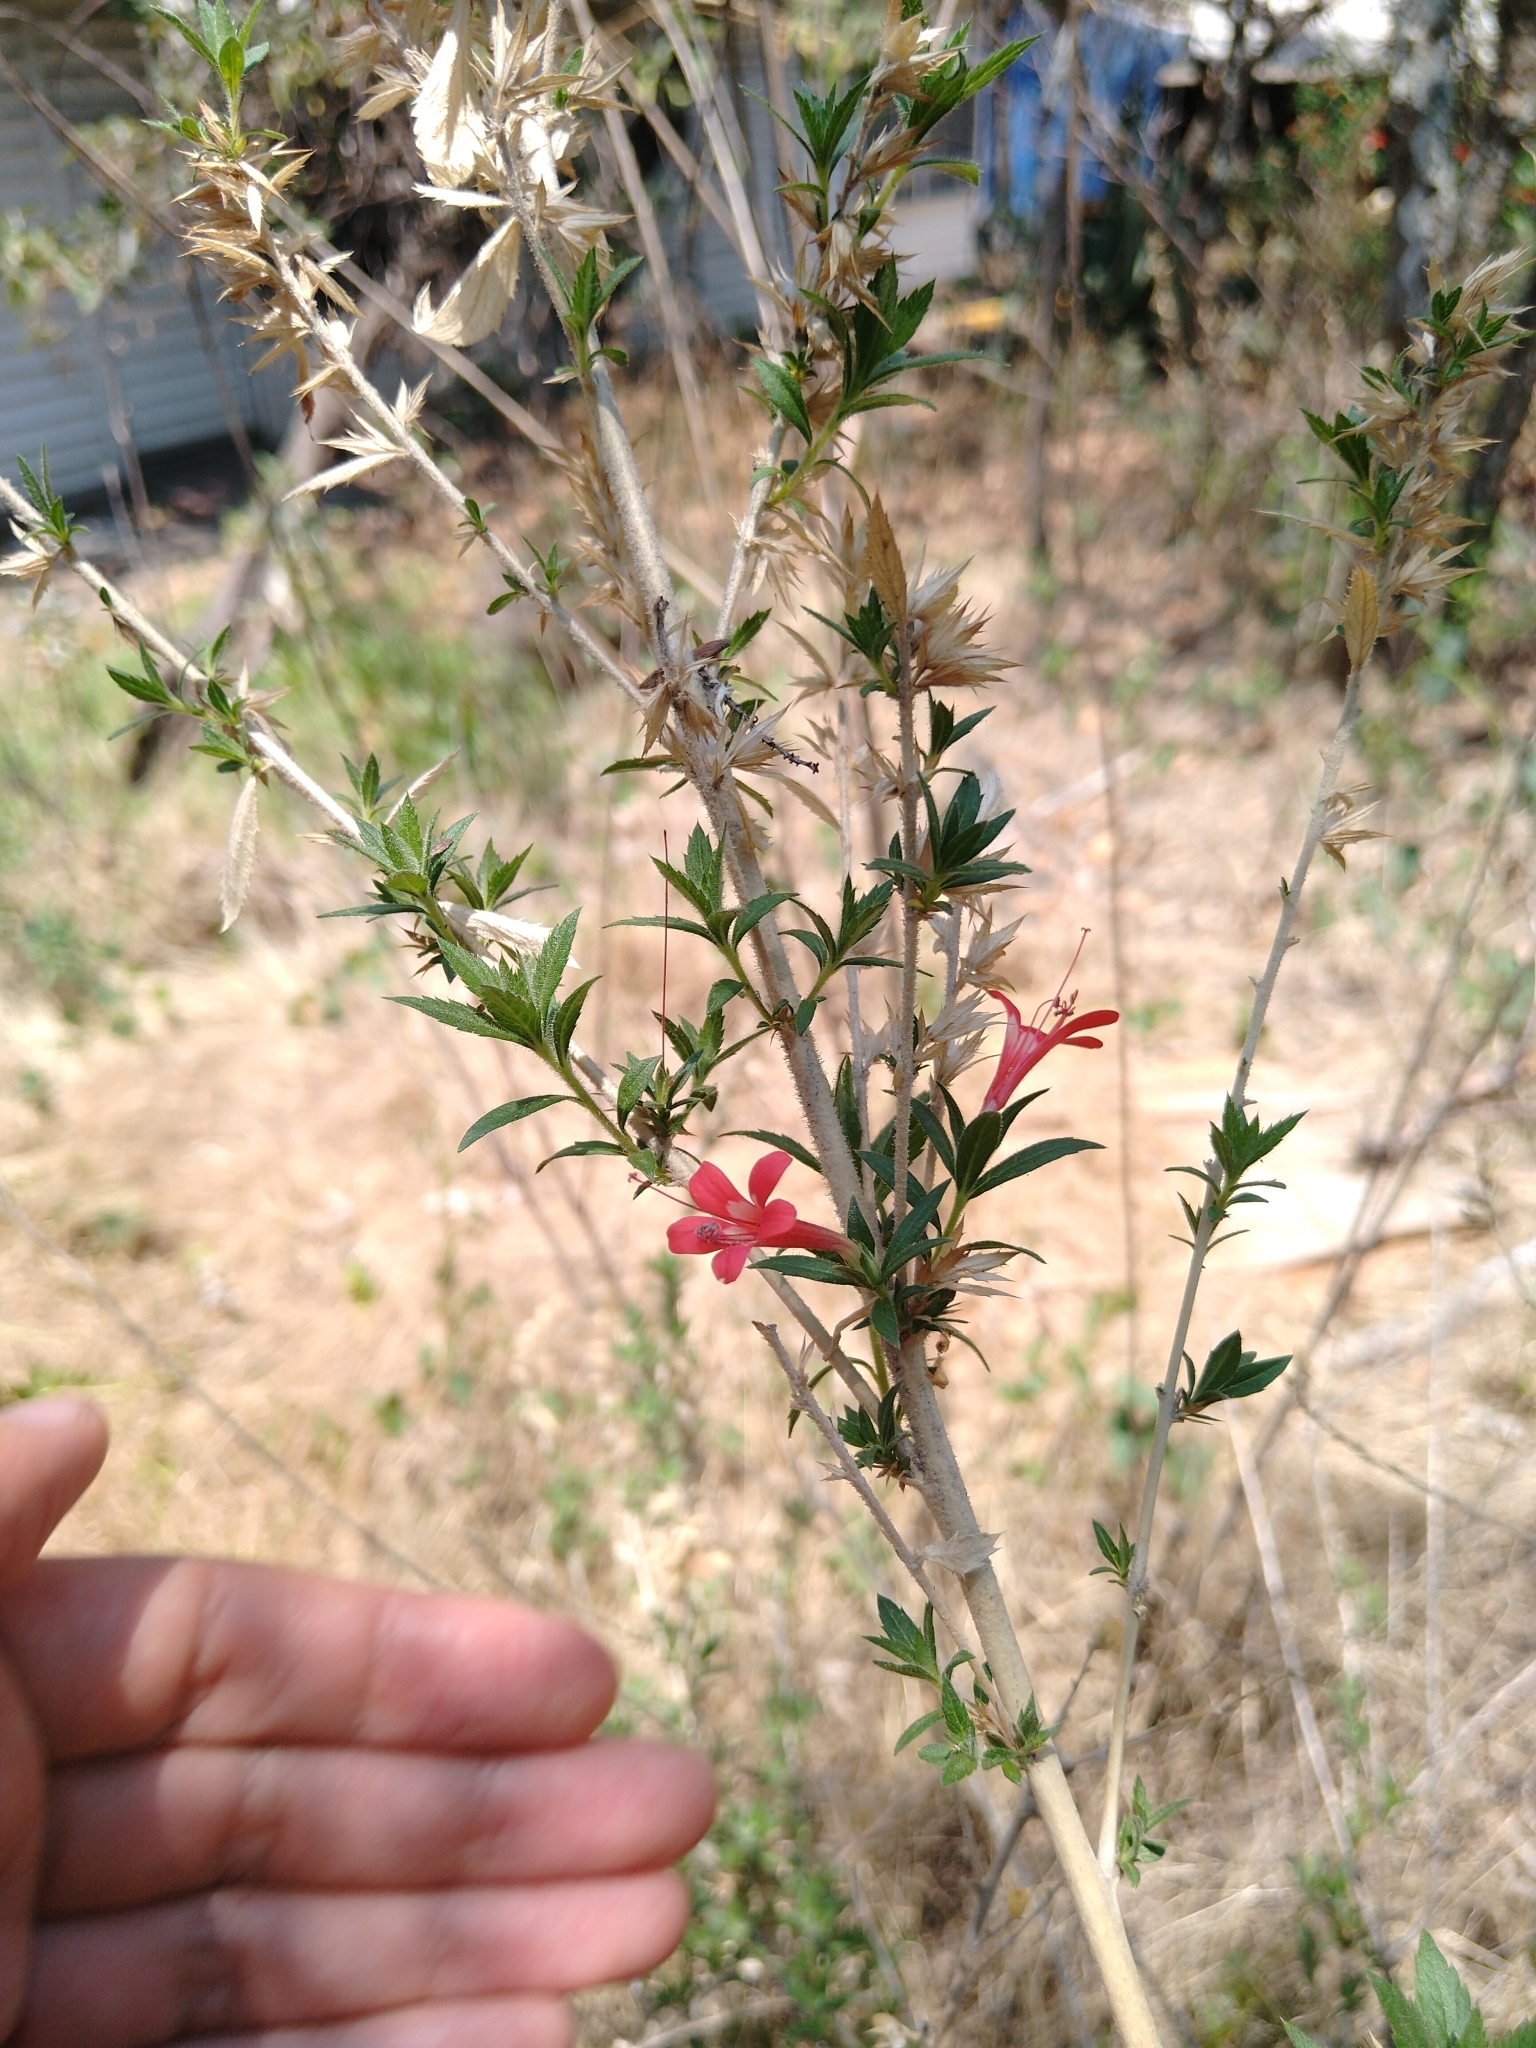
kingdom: Plantae
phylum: Tracheophyta
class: Magnoliopsida
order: Ericales
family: Polemoniaceae
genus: Loeselia
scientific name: Loeselia mexicana
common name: Mexican false calico
